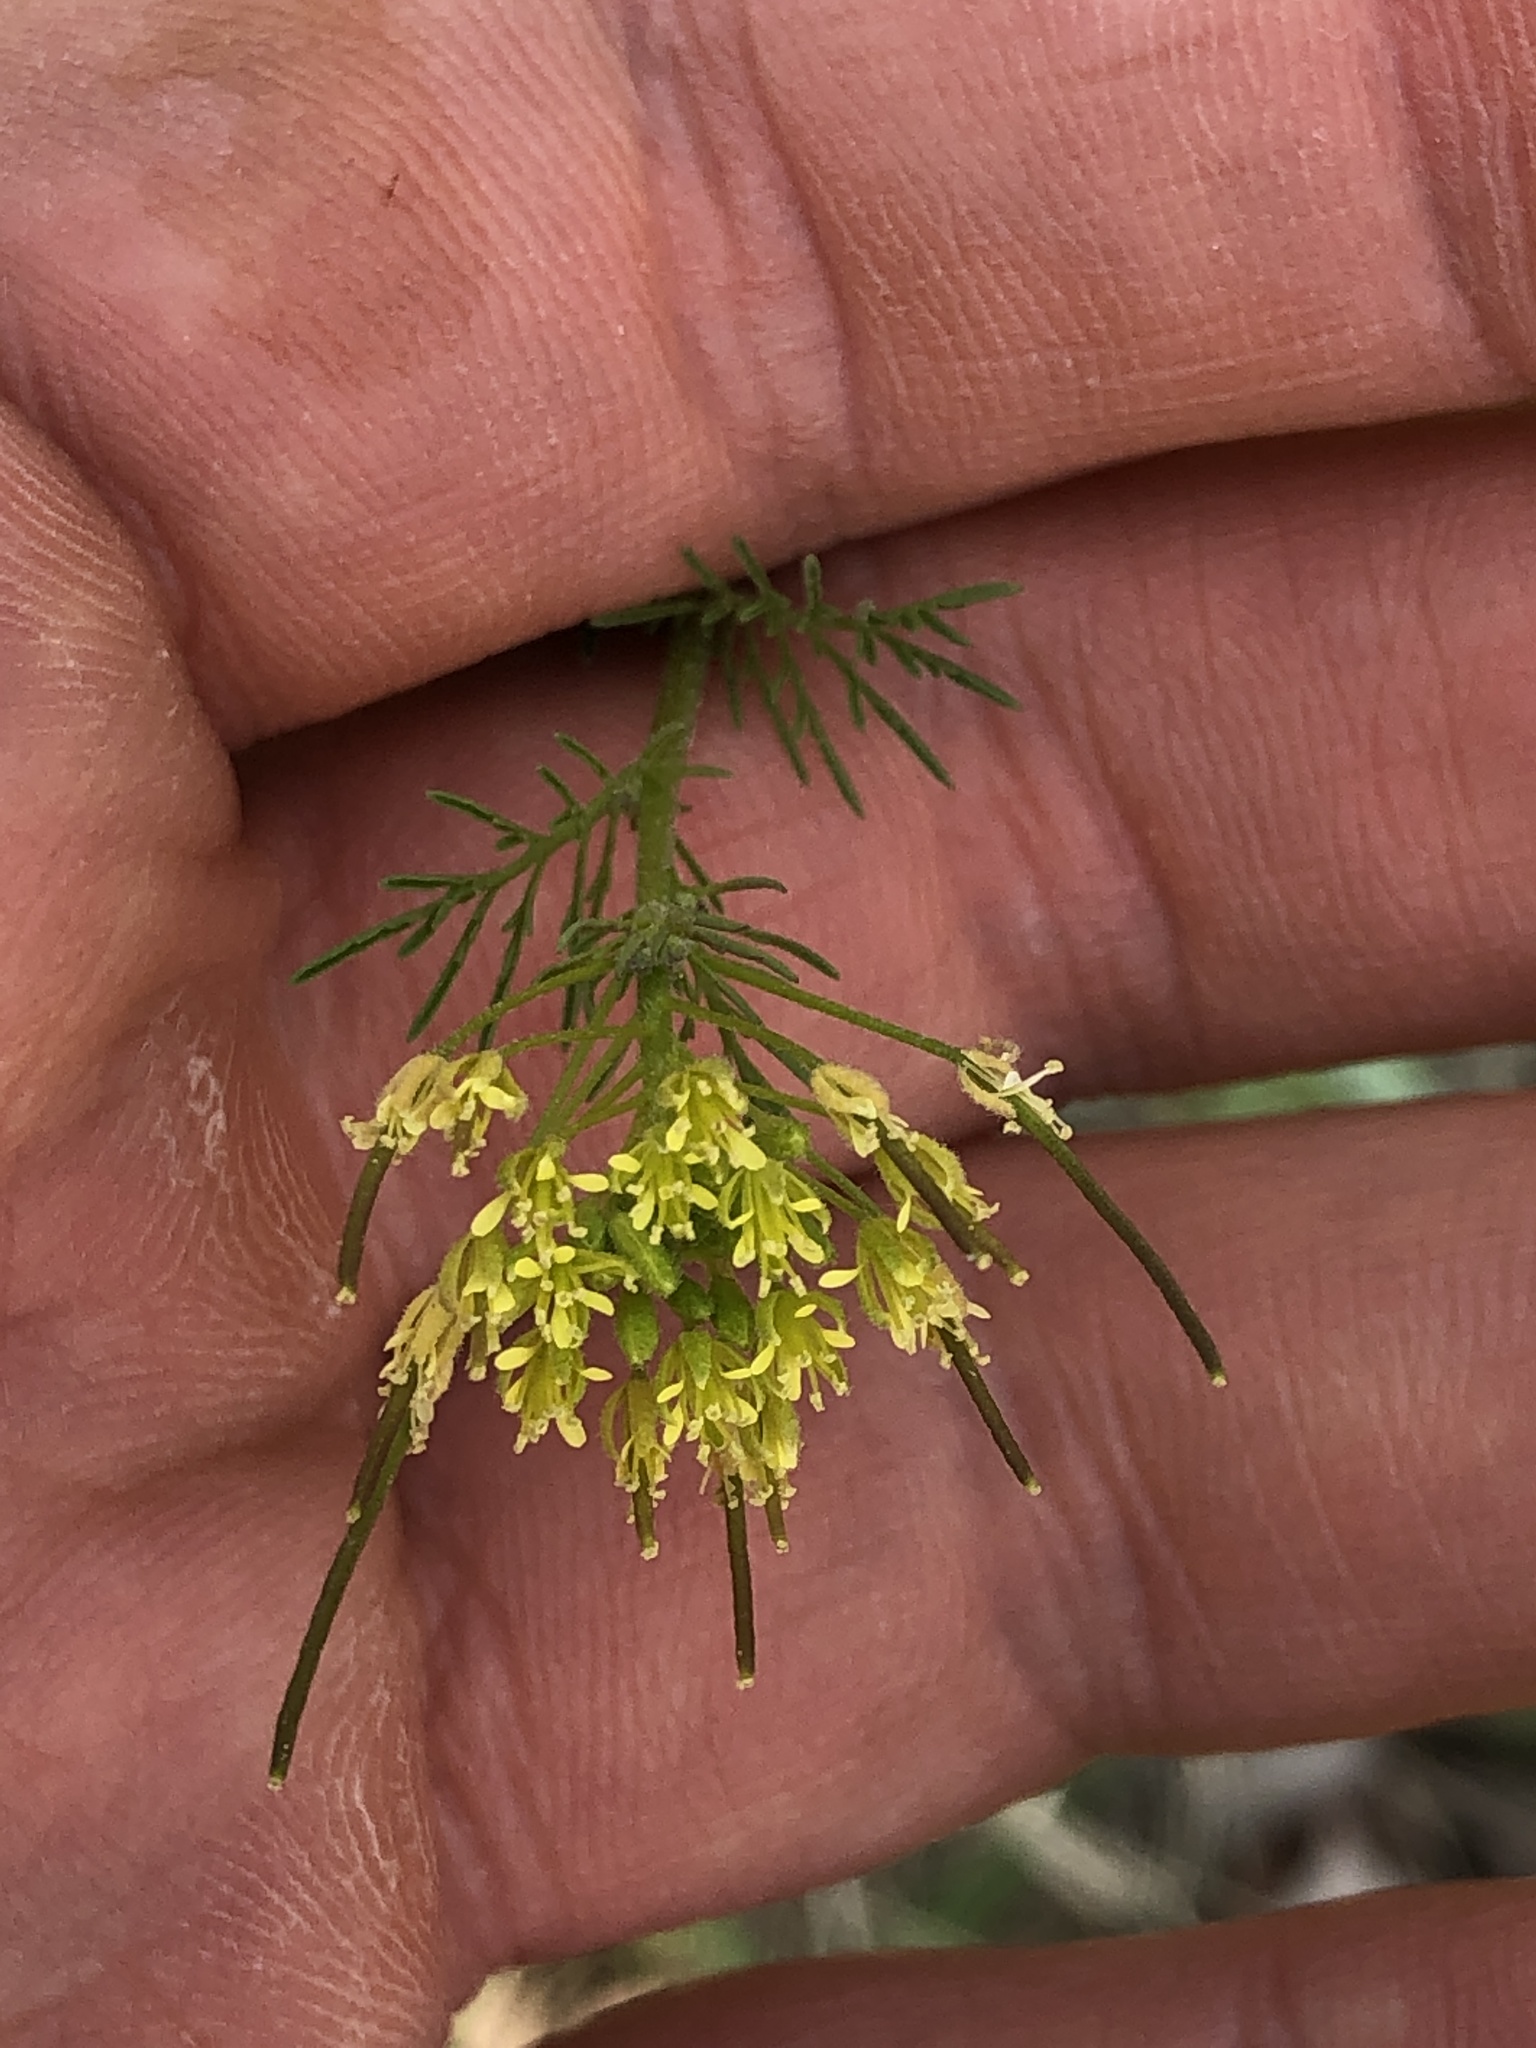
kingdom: Plantae
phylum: Tracheophyta
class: Magnoliopsida
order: Brassicales
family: Brassicaceae
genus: Rorippa
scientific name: Rorippa palustris
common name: Marsh yellow-cress
